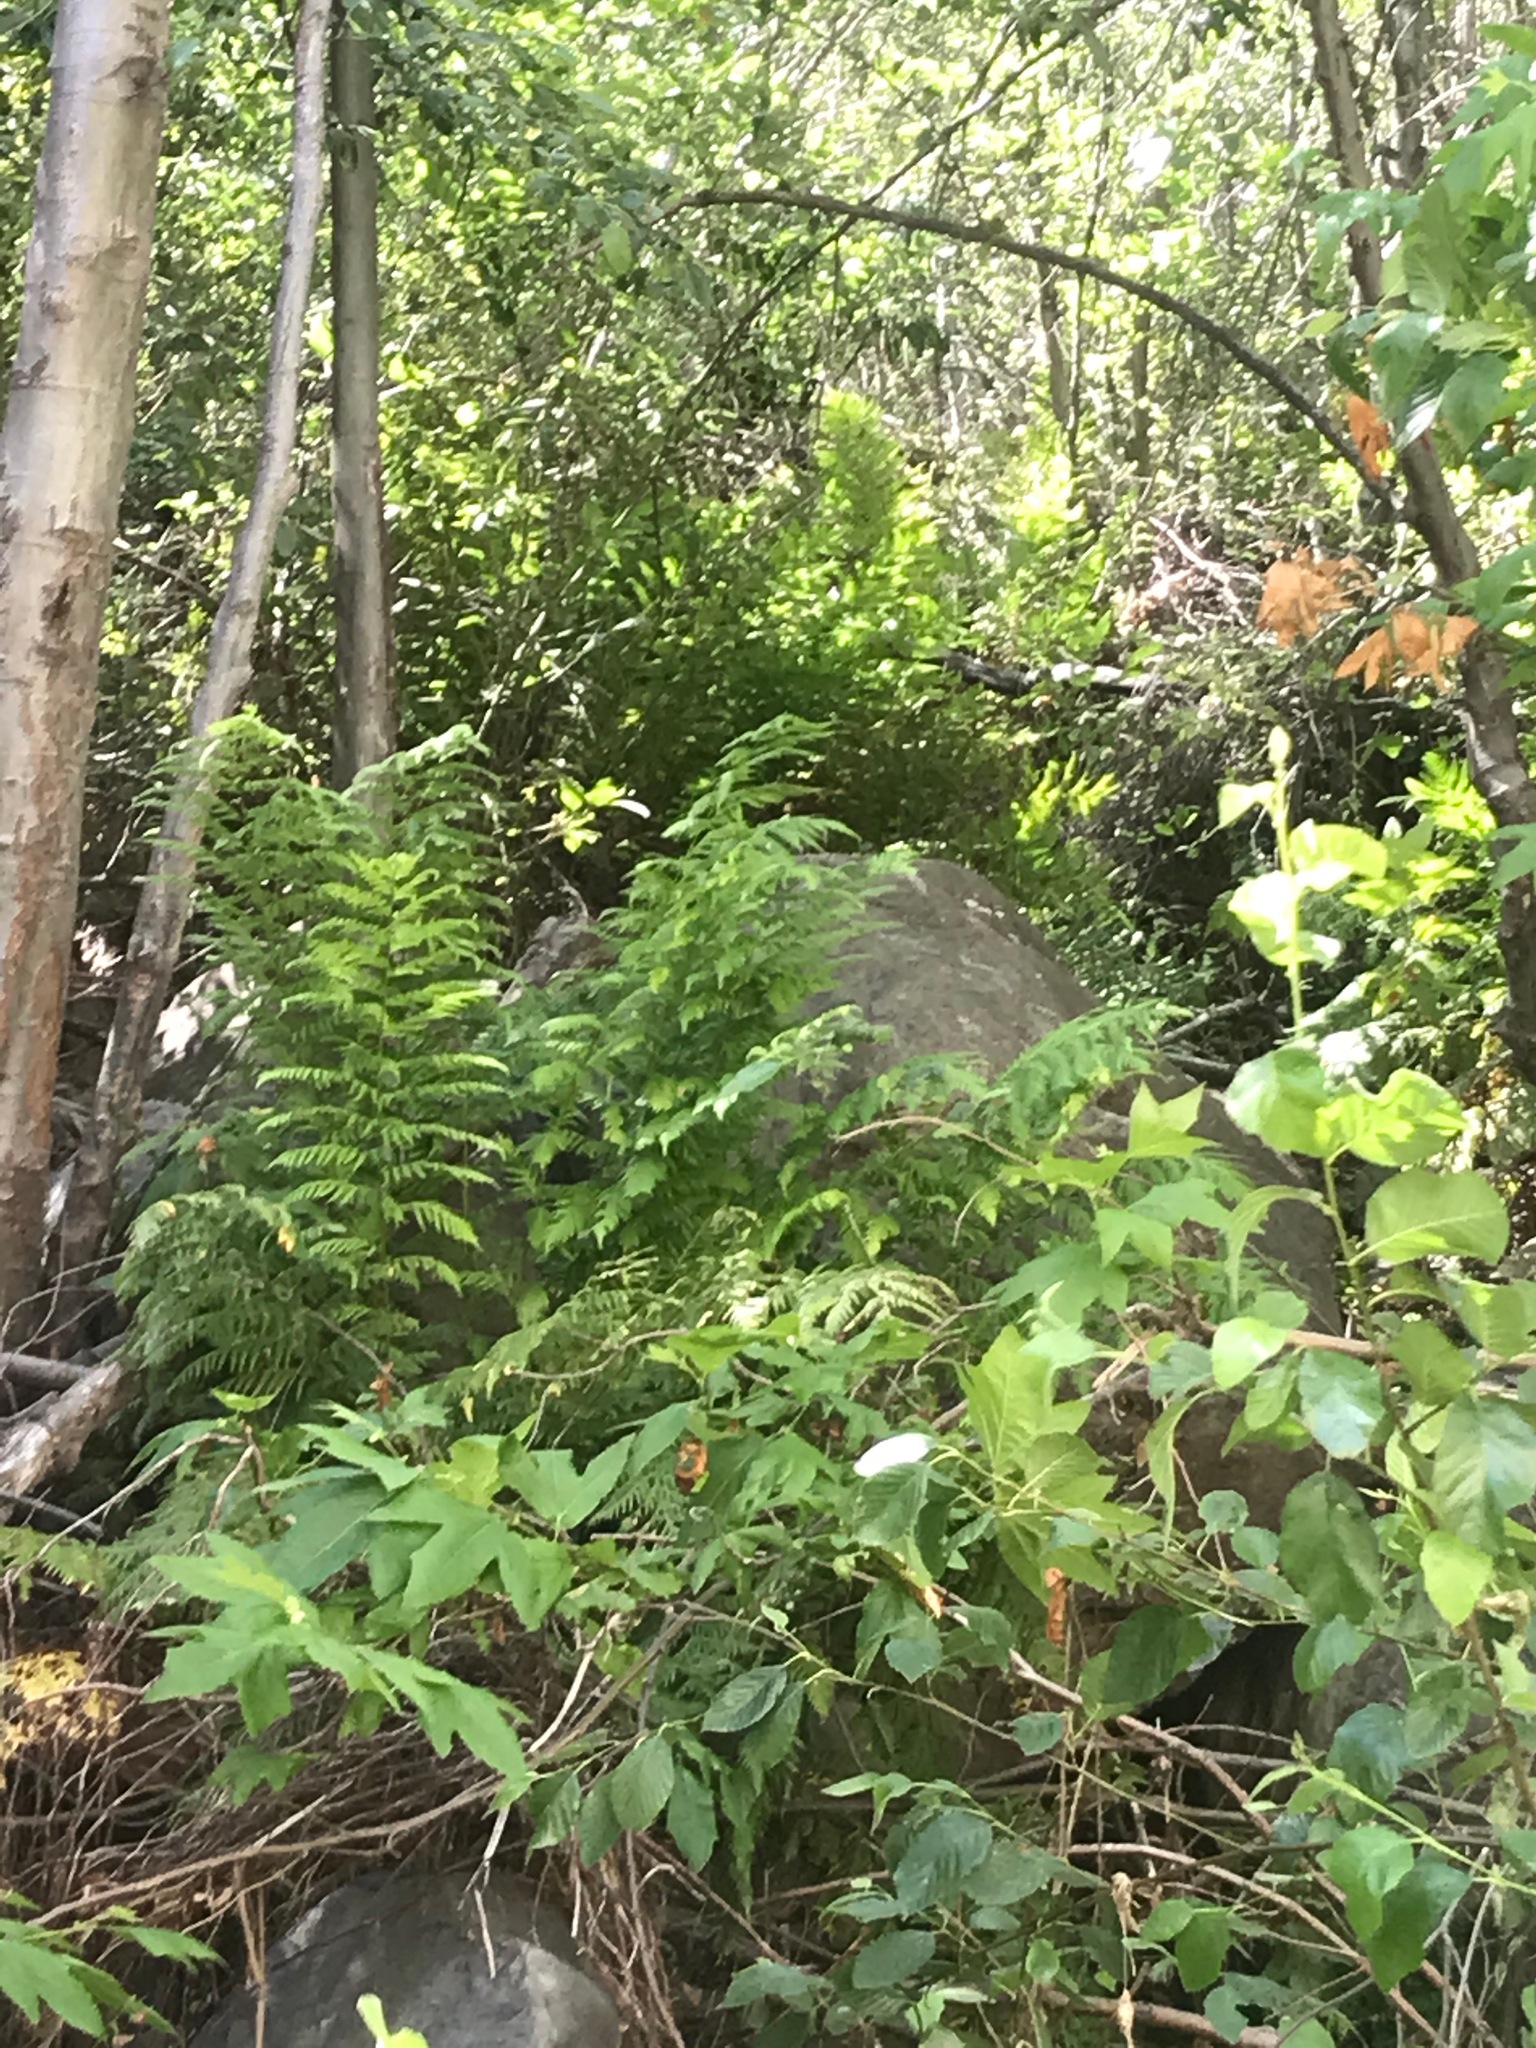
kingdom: Plantae
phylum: Tracheophyta
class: Polypodiopsida
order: Polypodiales
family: Blechnaceae
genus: Woodwardia
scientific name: Woodwardia fimbriata
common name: Giant chain fern
